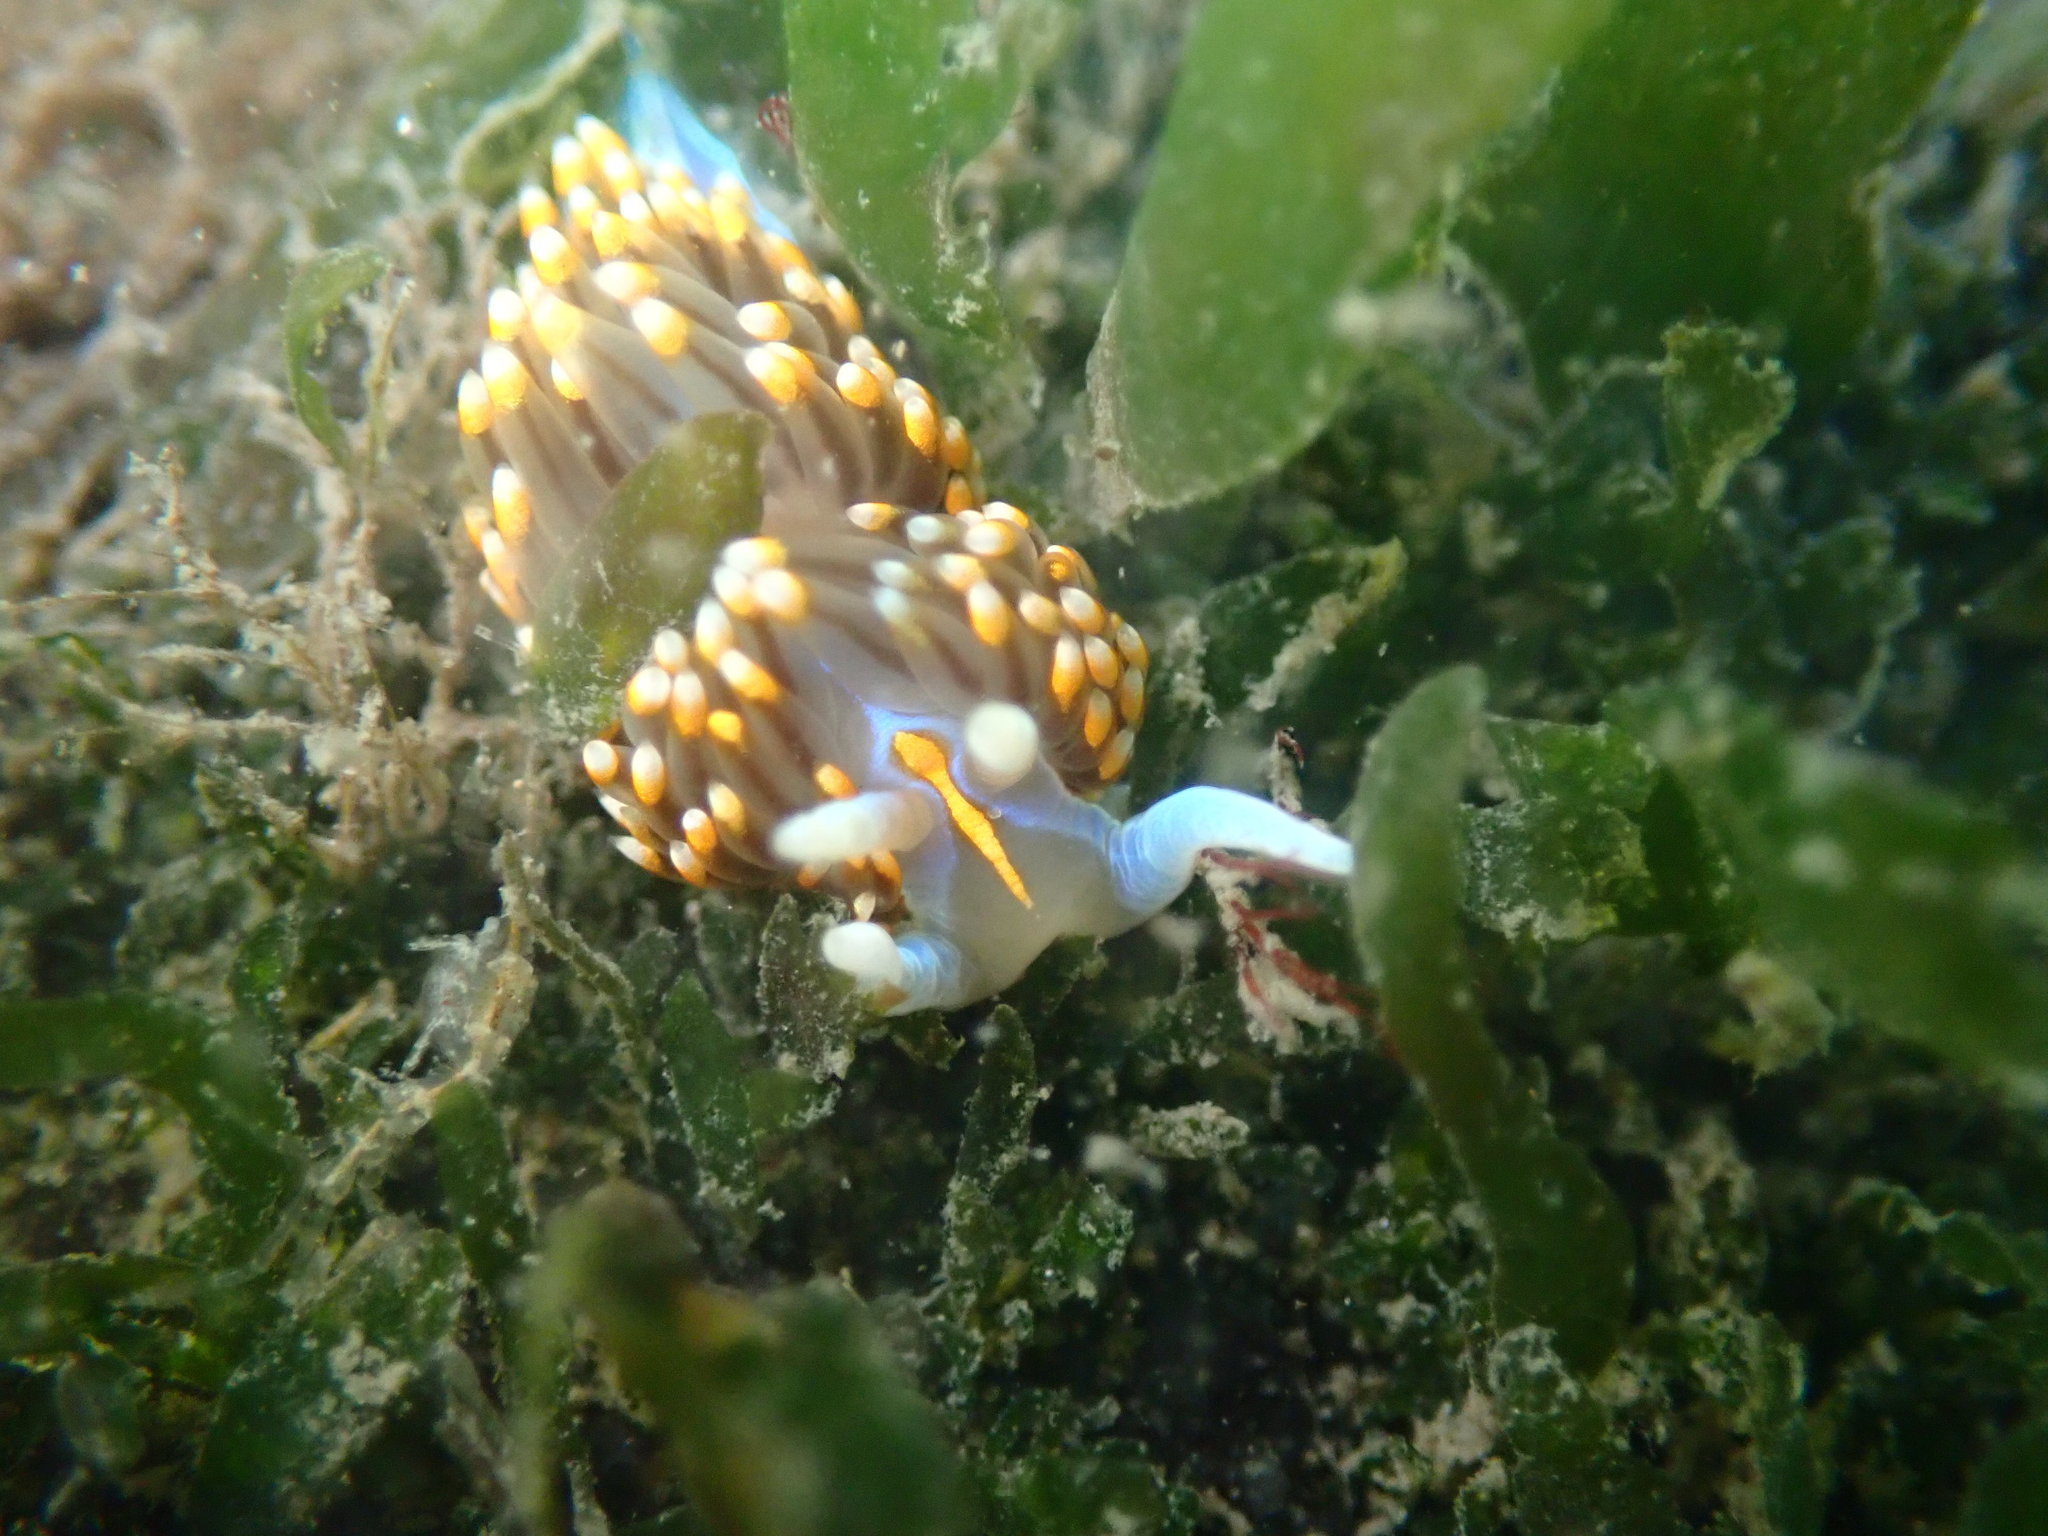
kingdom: Animalia
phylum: Mollusca
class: Gastropoda
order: Nudibranchia
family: Myrrhinidae
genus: Hermissenda
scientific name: Hermissenda opalescens
